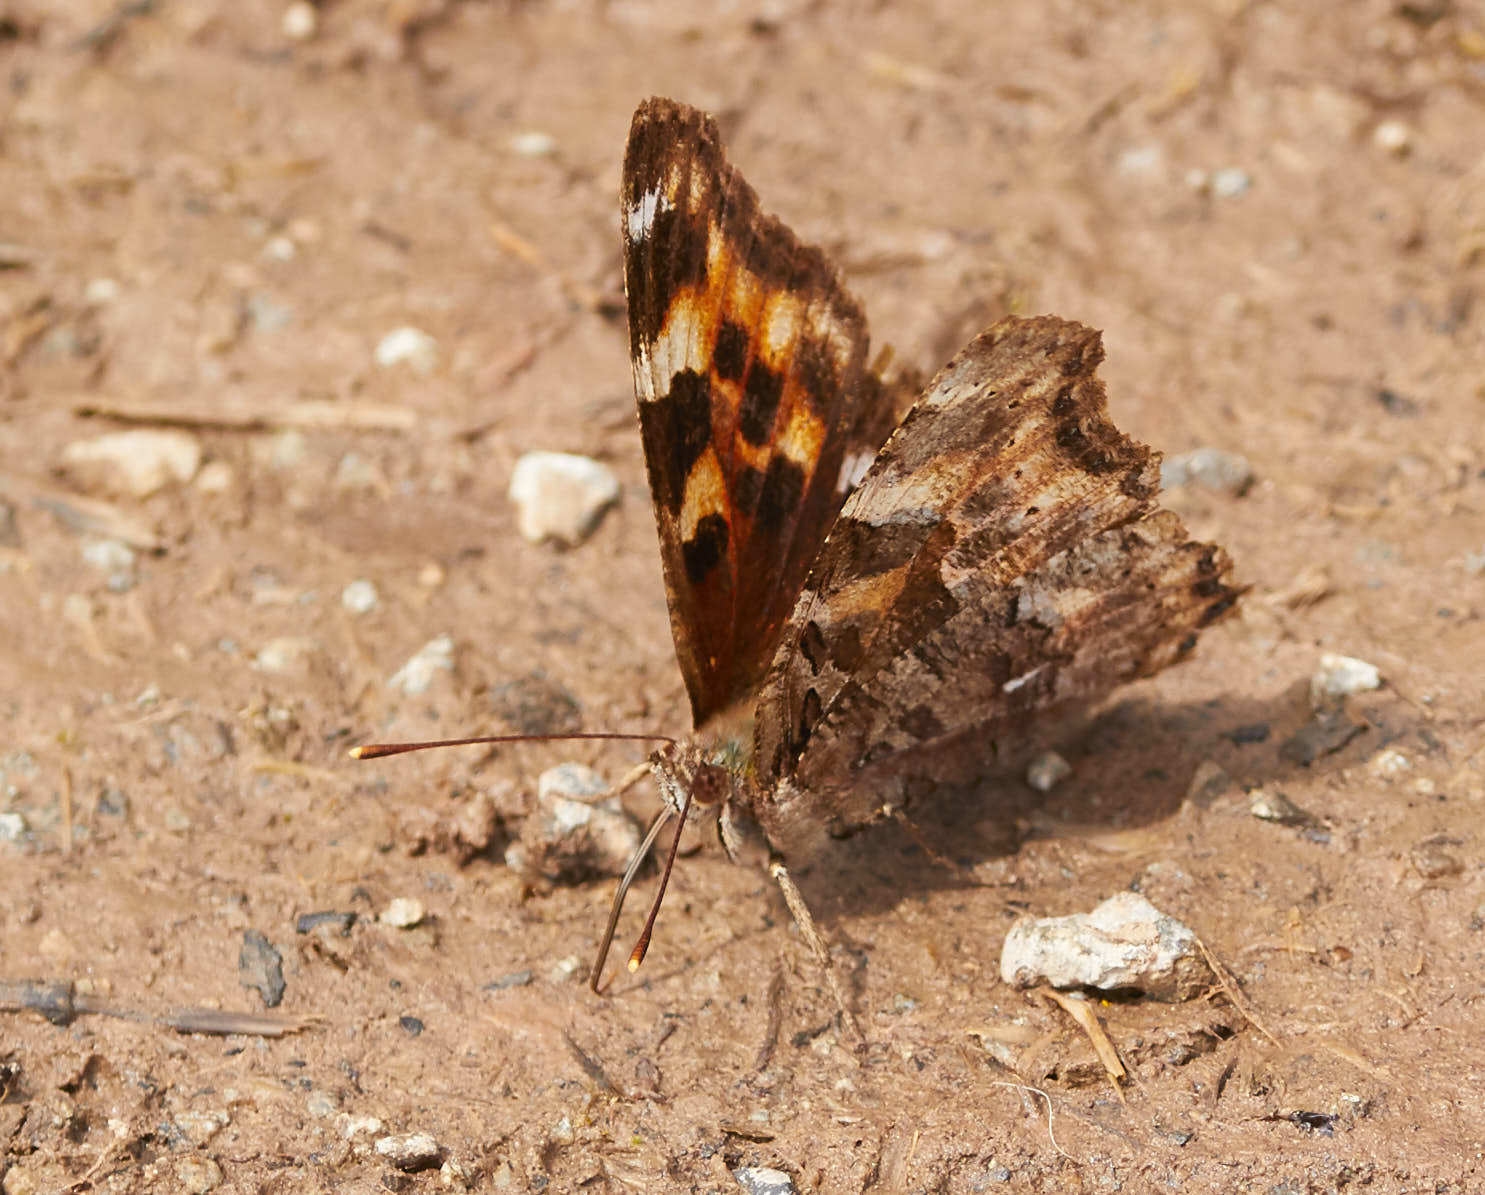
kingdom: Animalia
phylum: Arthropoda
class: Insecta
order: Lepidoptera
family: Nymphalidae
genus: Polygonia
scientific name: Polygonia vaualbum
